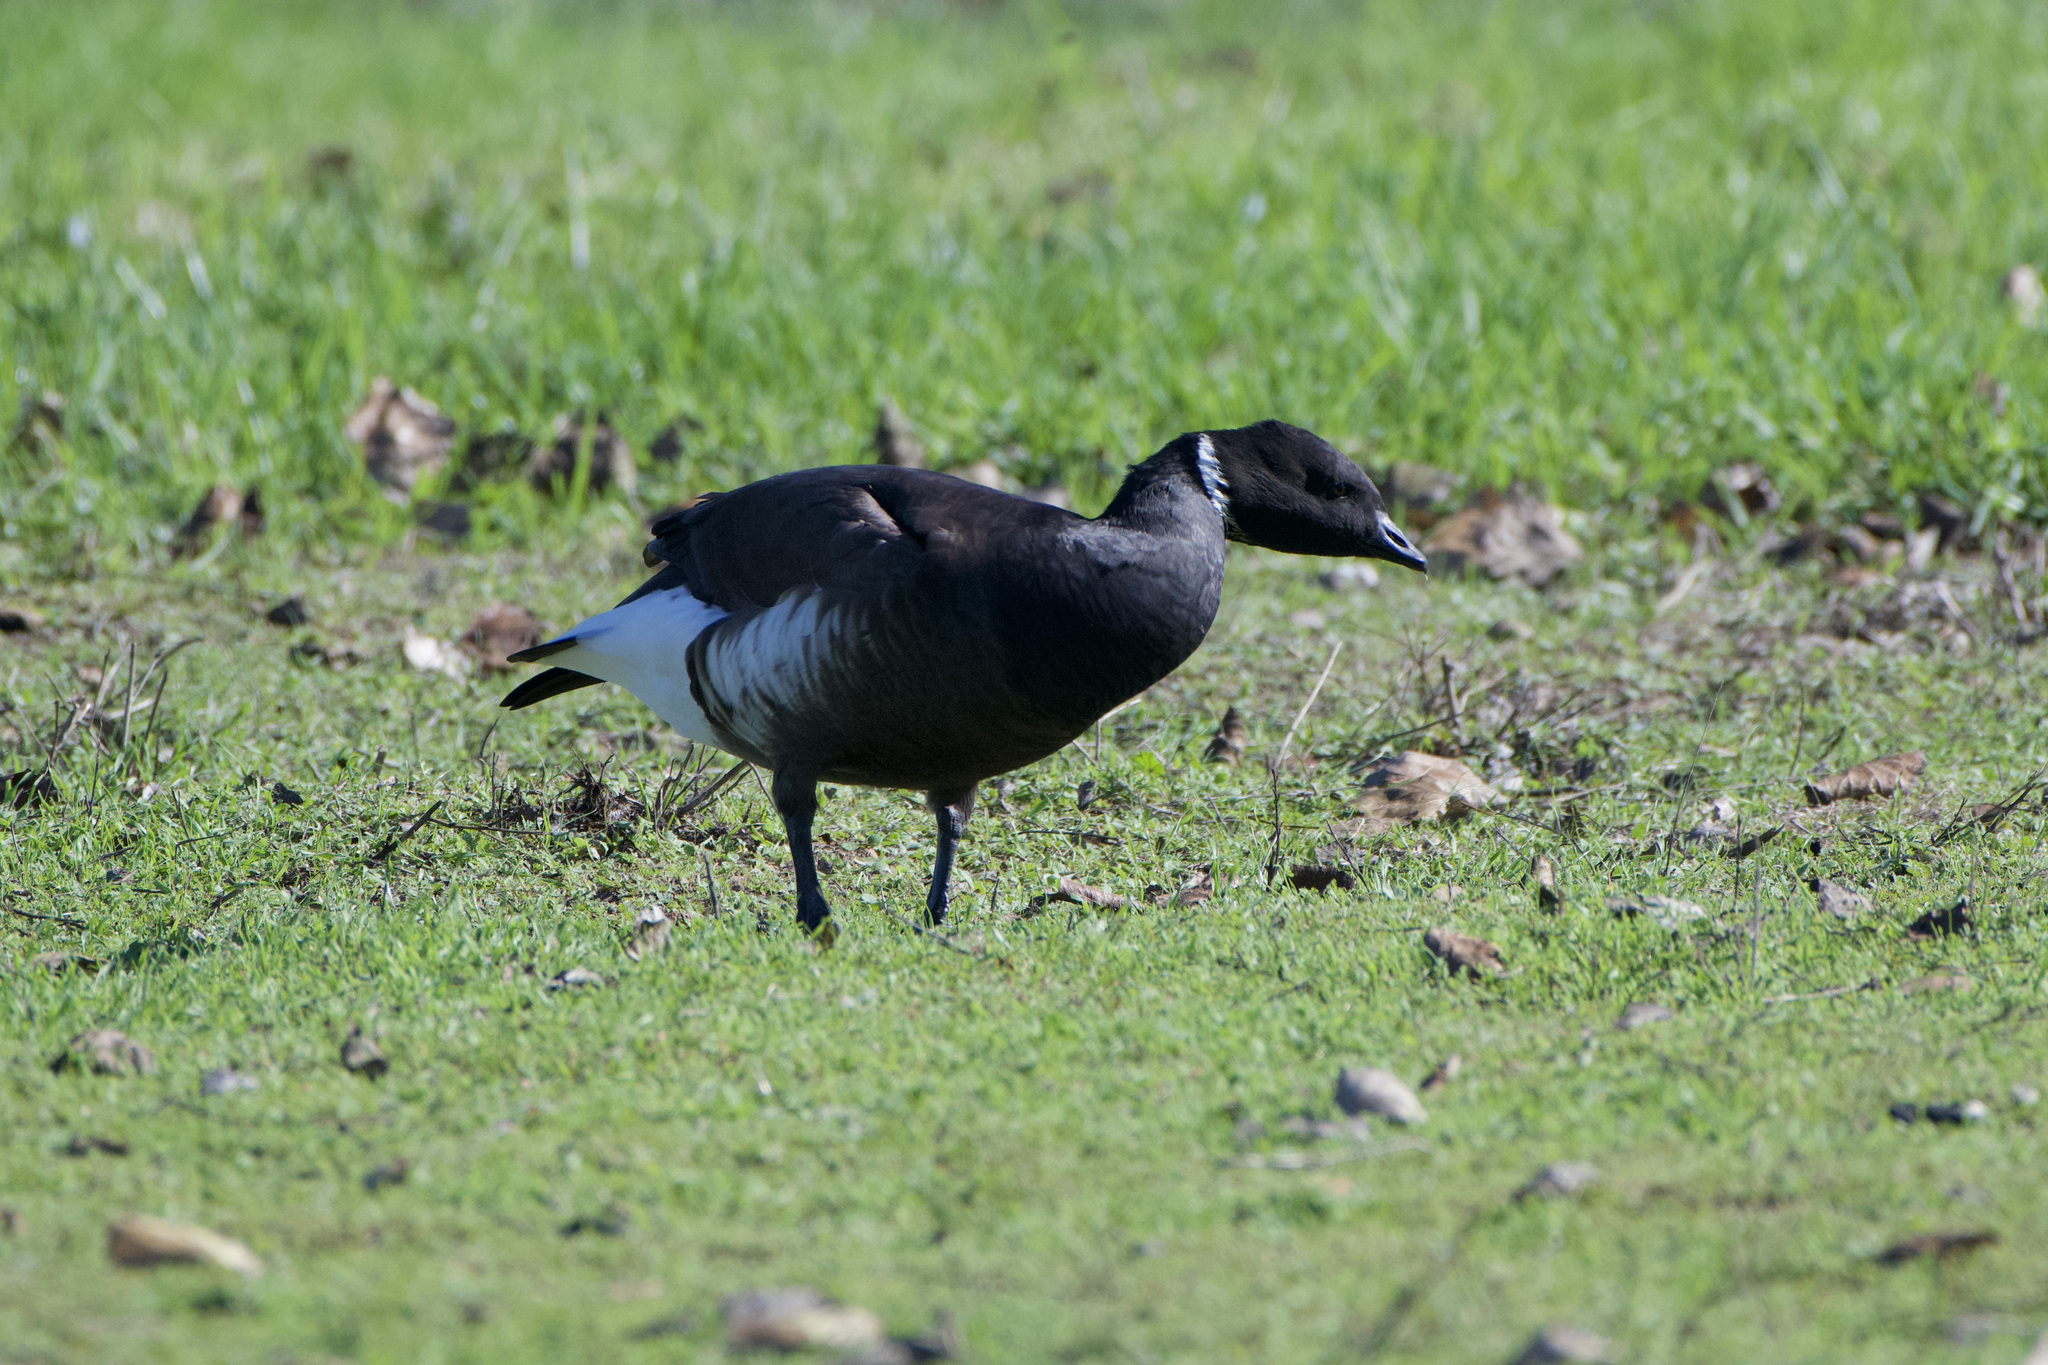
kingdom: Animalia
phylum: Chordata
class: Aves
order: Anseriformes
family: Anatidae
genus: Branta
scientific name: Branta bernicla
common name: Brant goose
